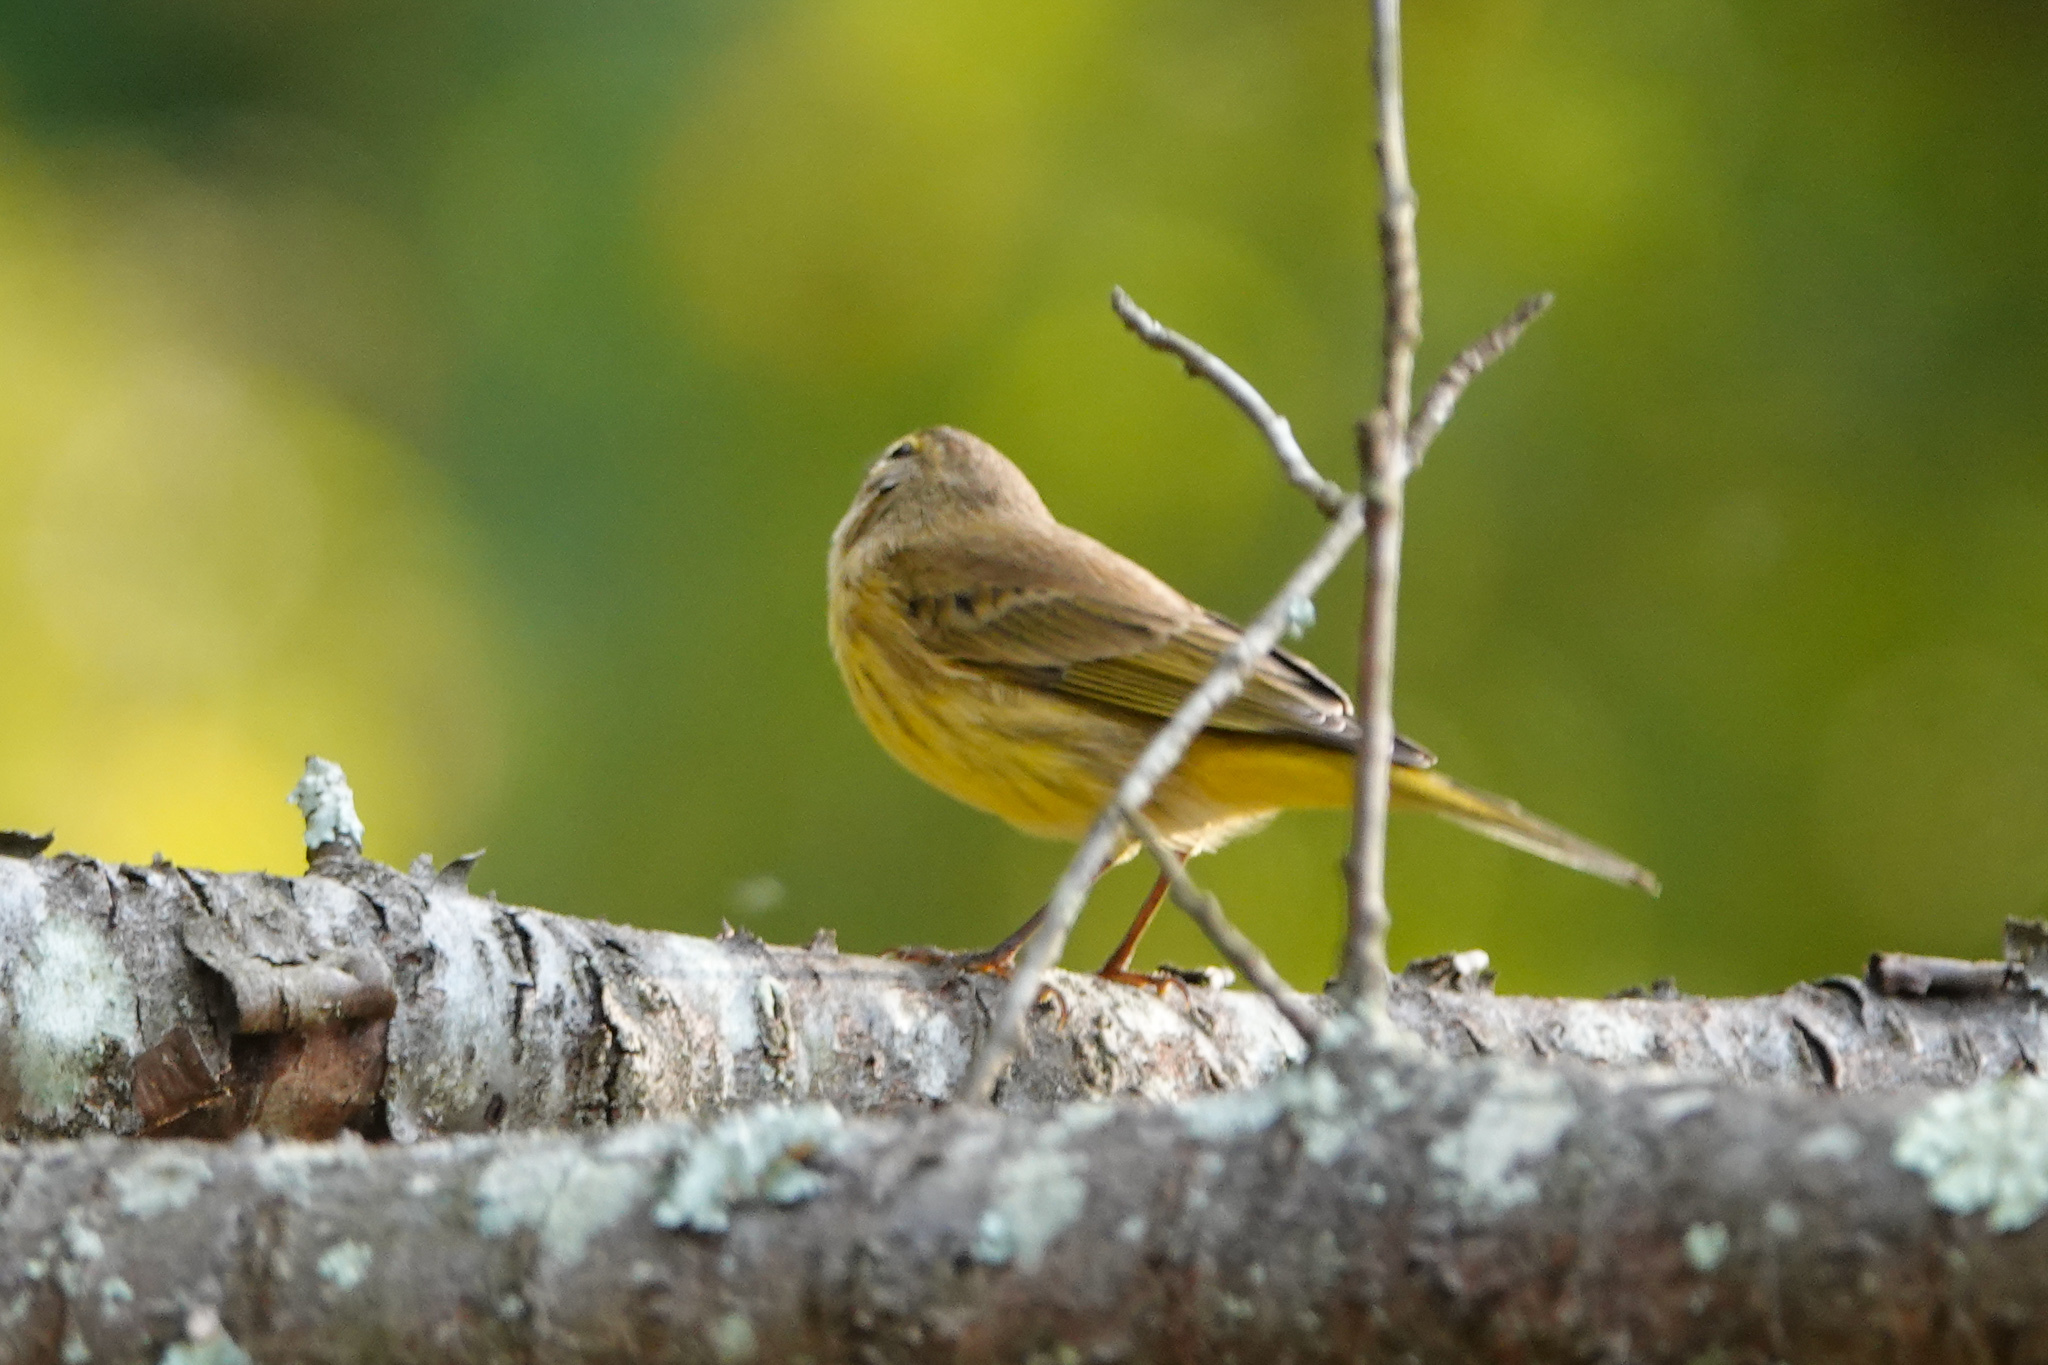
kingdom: Animalia
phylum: Chordata
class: Aves
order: Passeriformes
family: Parulidae
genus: Setophaga
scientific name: Setophaga palmarum
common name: Palm warbler
